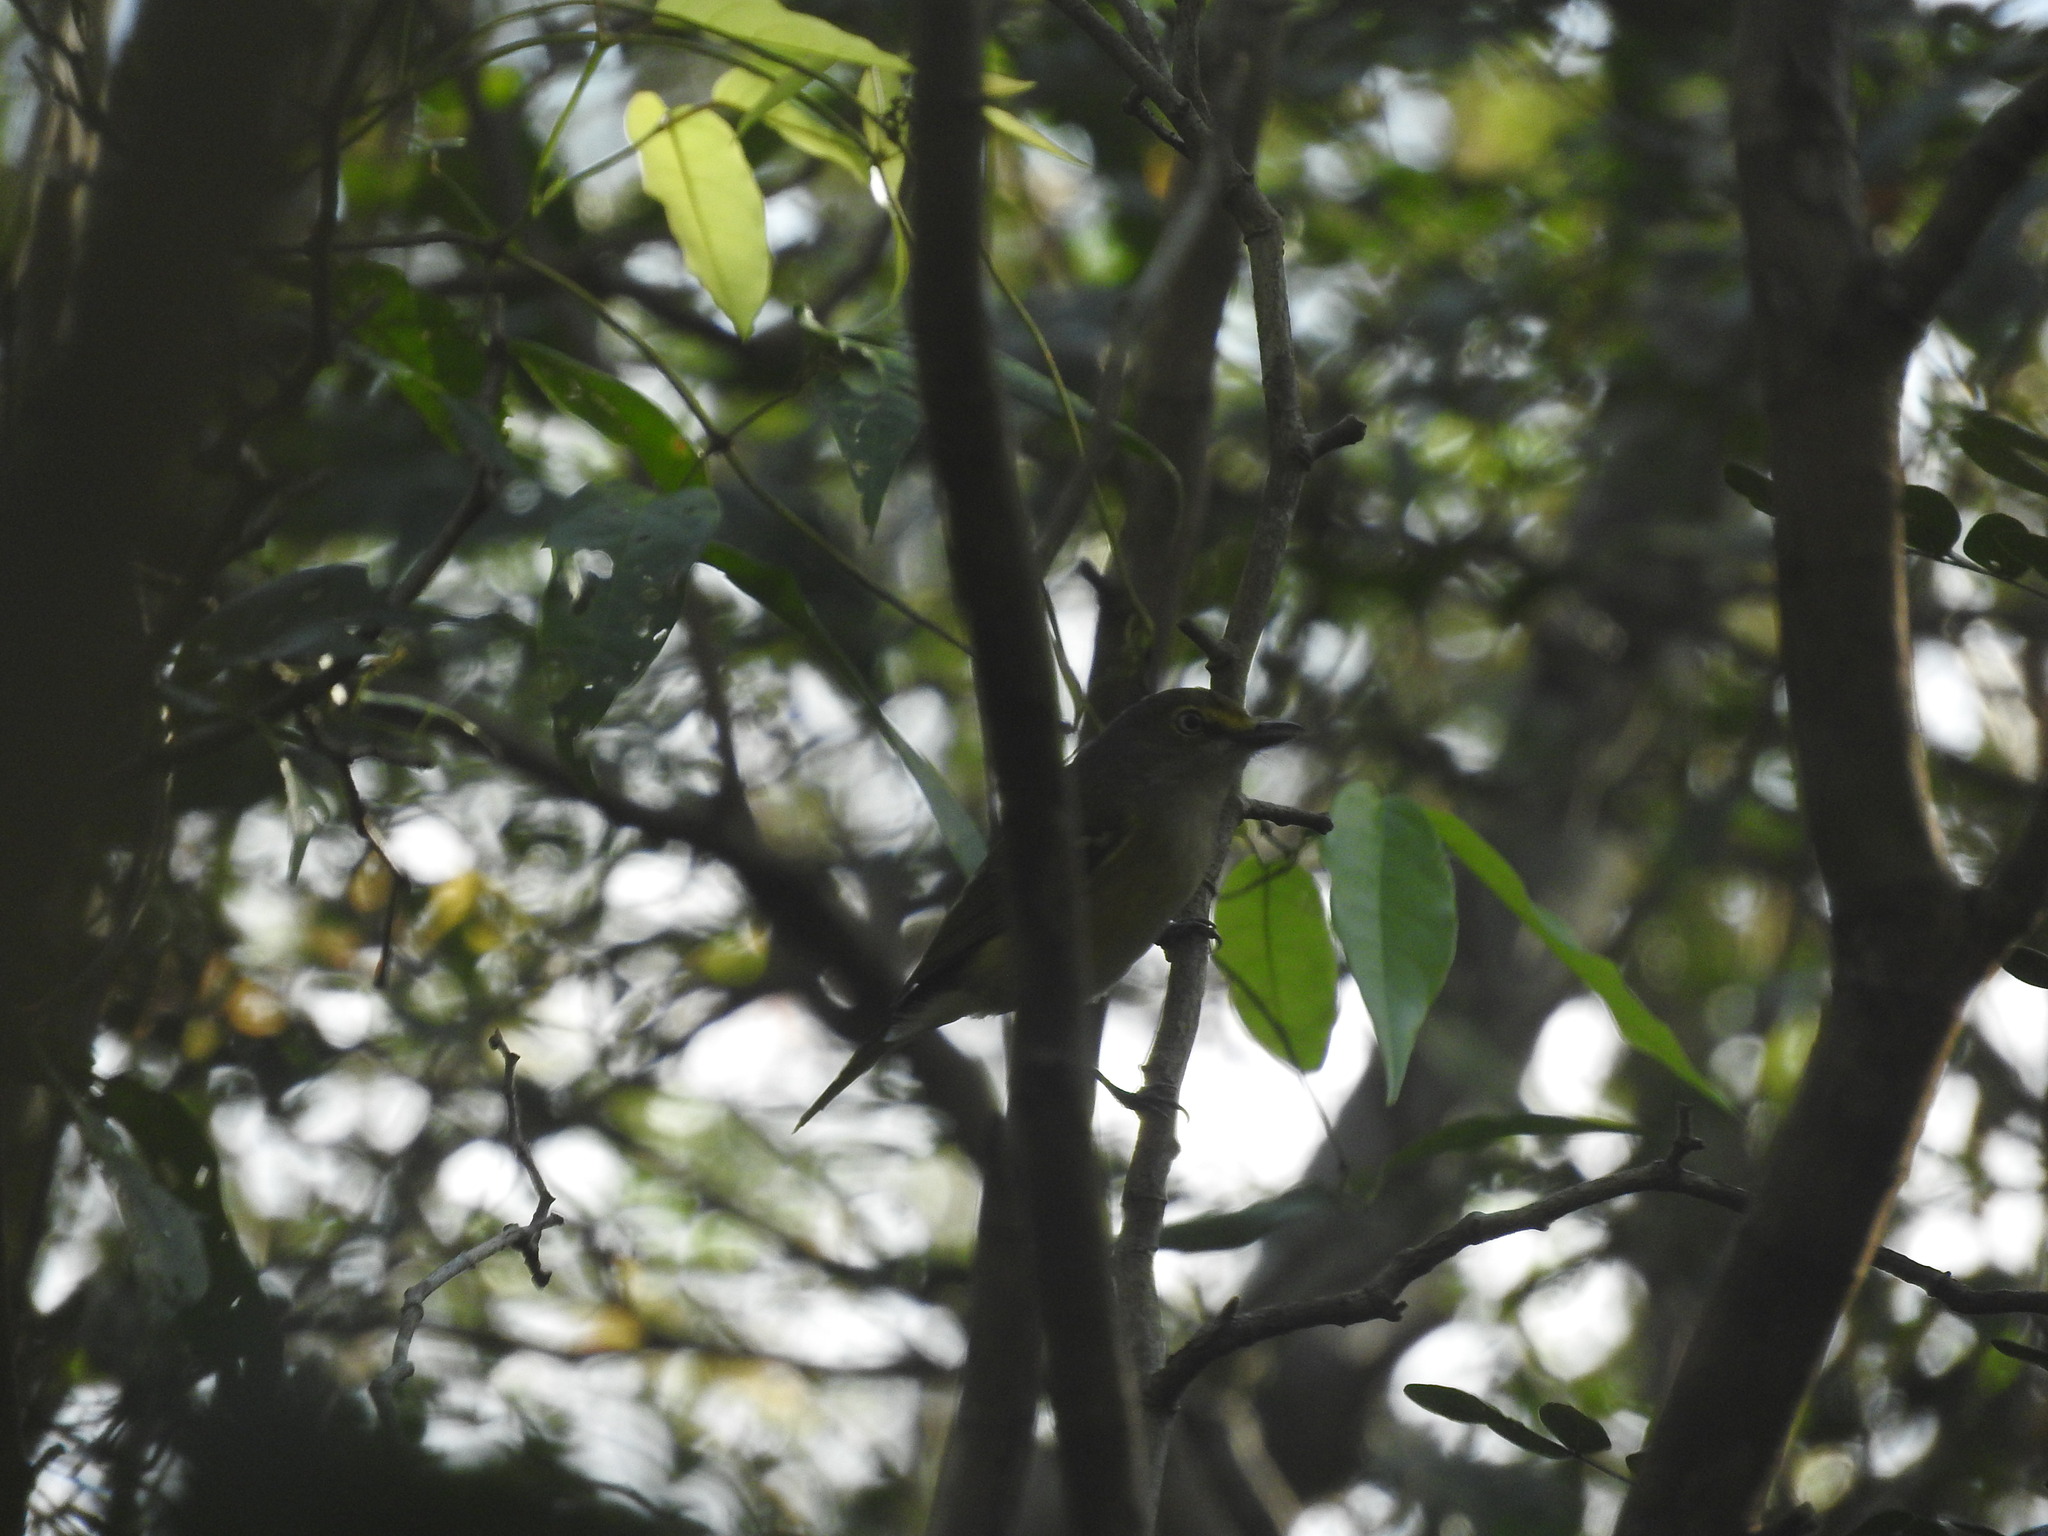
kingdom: Animalia
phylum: Chordata
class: Aves
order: Passeriformes
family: Vireonidae
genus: Vireo
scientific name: Vireo griseus
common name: White-eyed vireo
